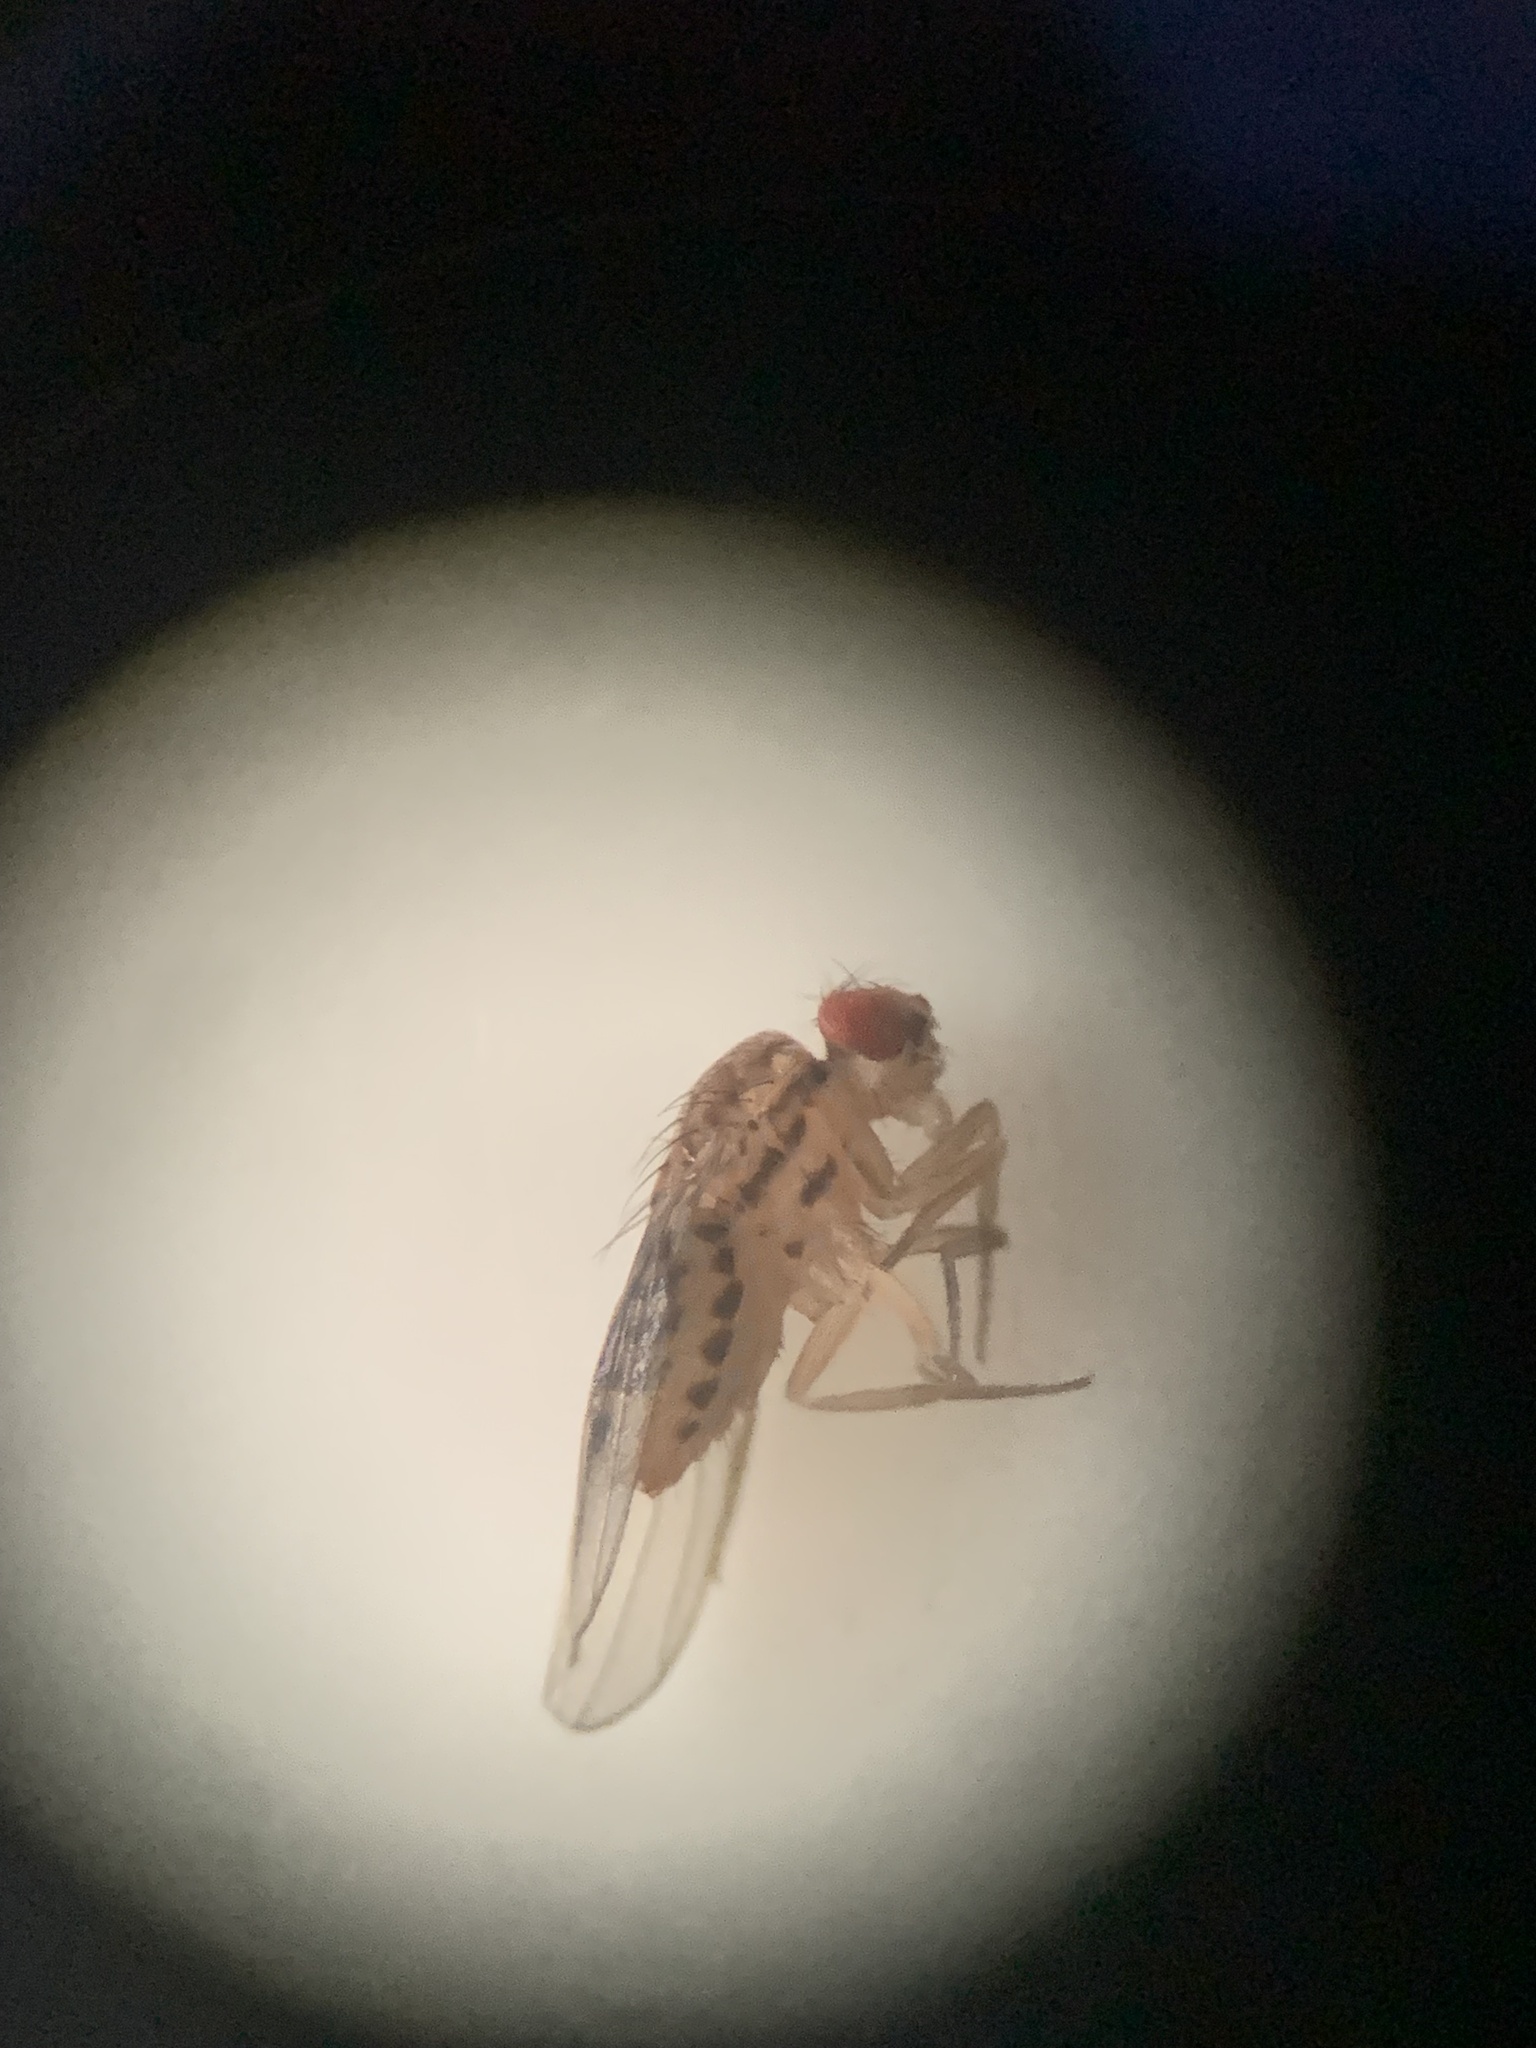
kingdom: Animalia
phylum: Arthropoda
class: Insecta
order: Diptera
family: Drosophilidae
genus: Drosophila
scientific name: Drosophila busckii
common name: Pomace fly
